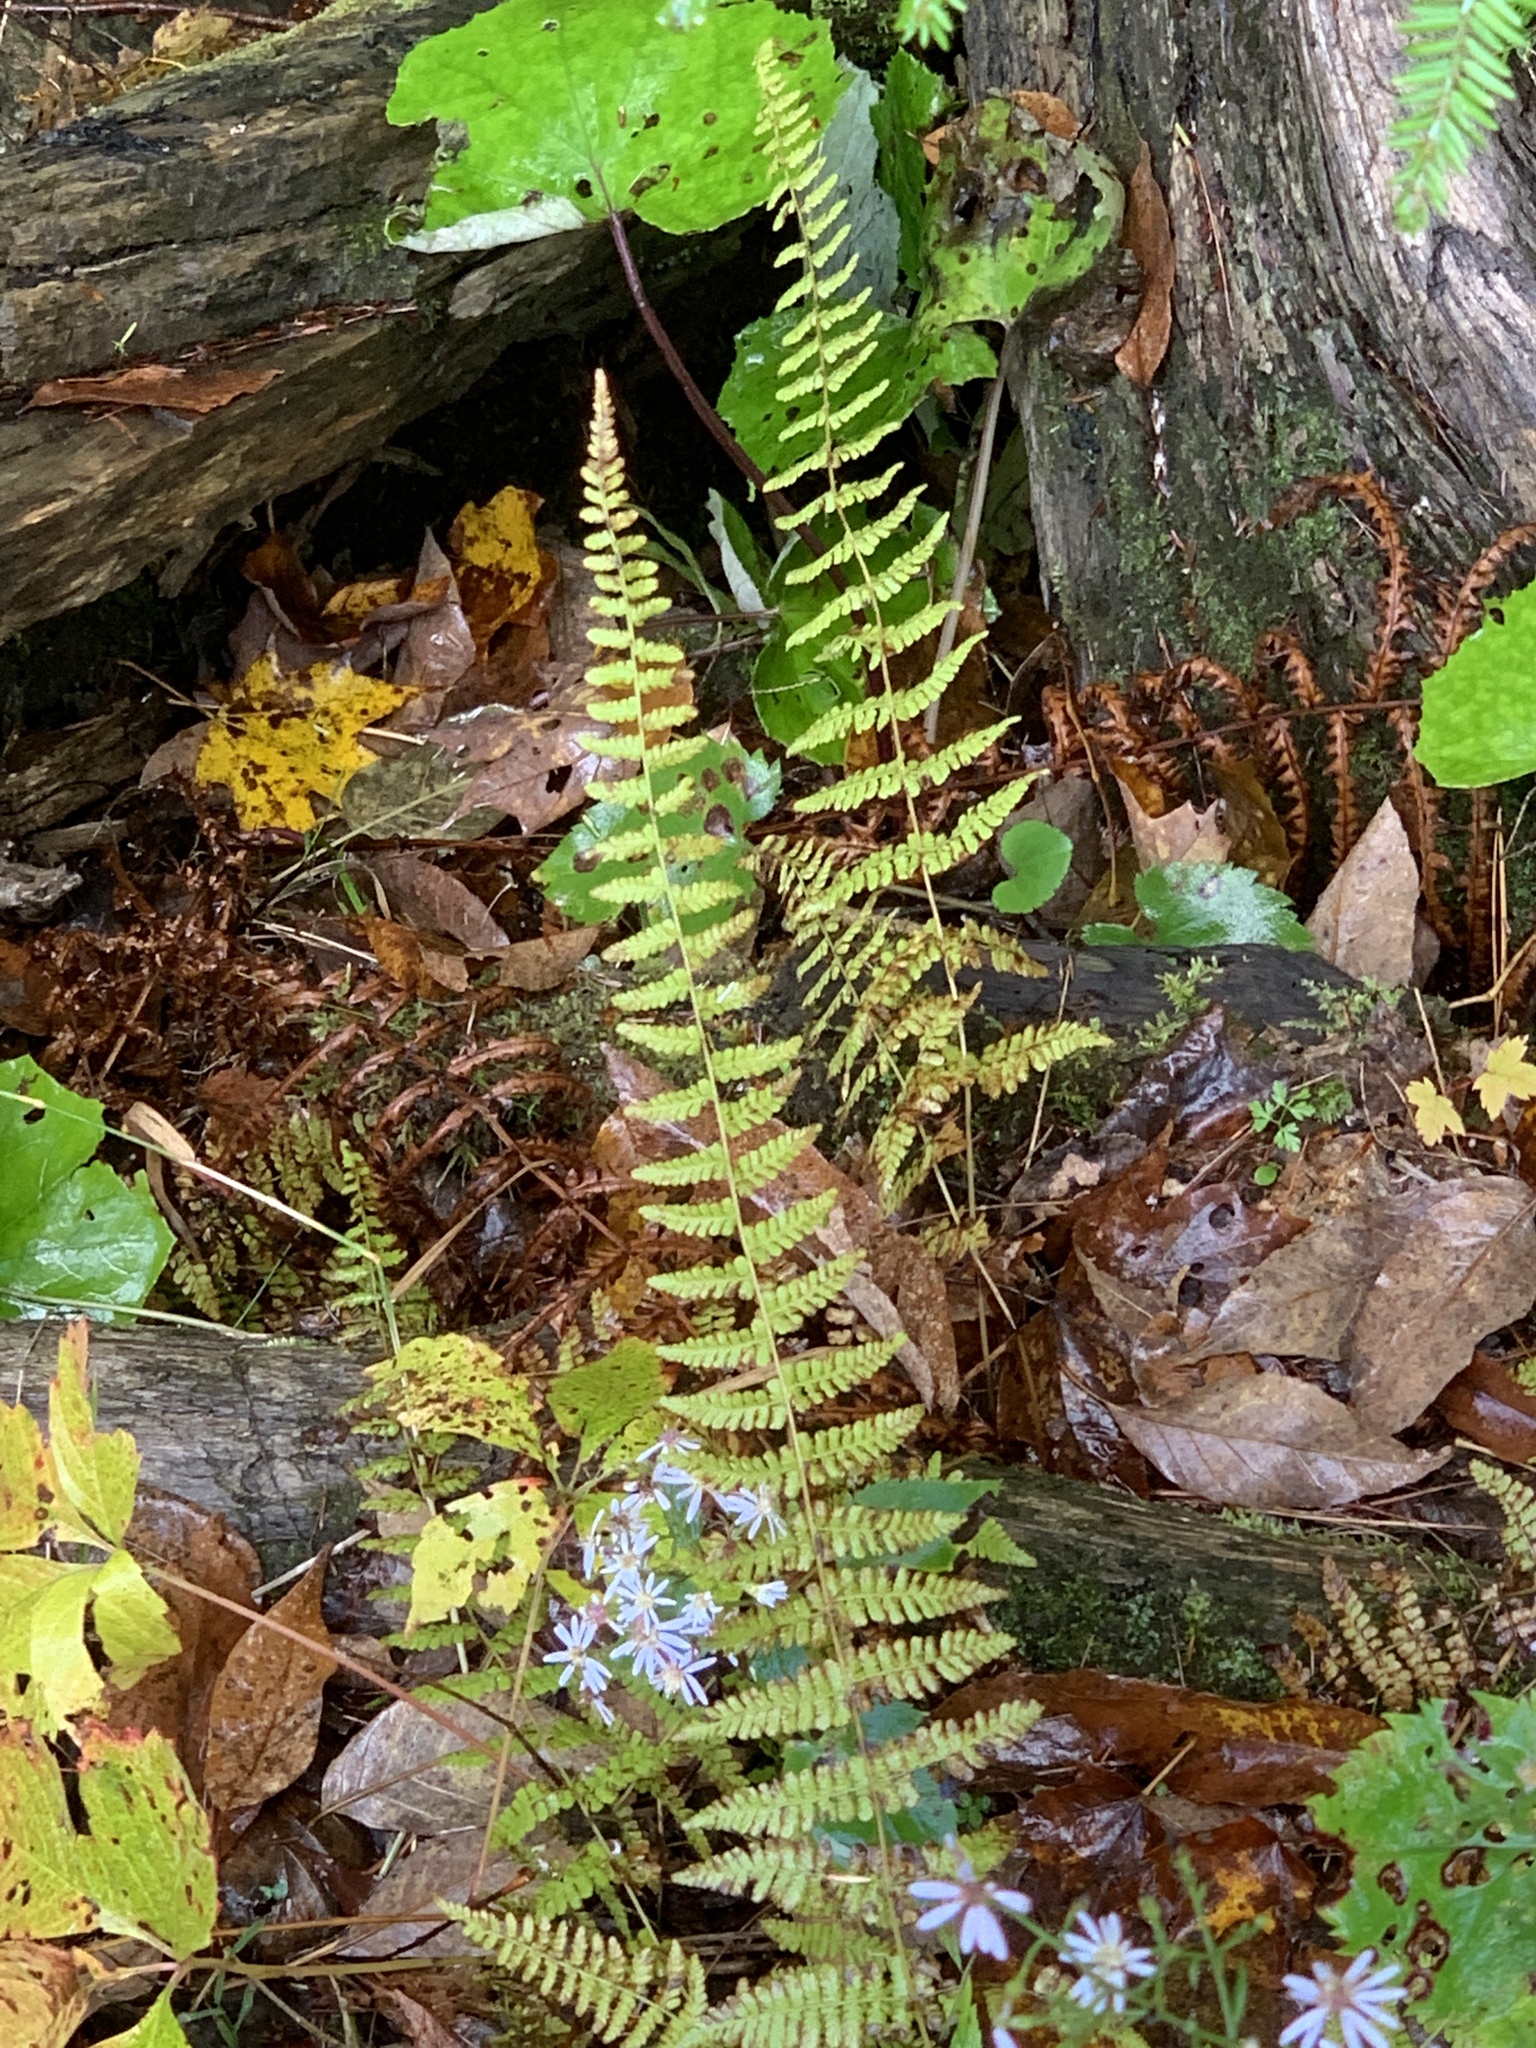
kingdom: Plantae
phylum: Tracheophyta
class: Polypodiopsida
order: Polypodiales
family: Cystopteridaceae
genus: Cystopteris
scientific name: Cystopteris bulbifera
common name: Bulblet bladder fern
